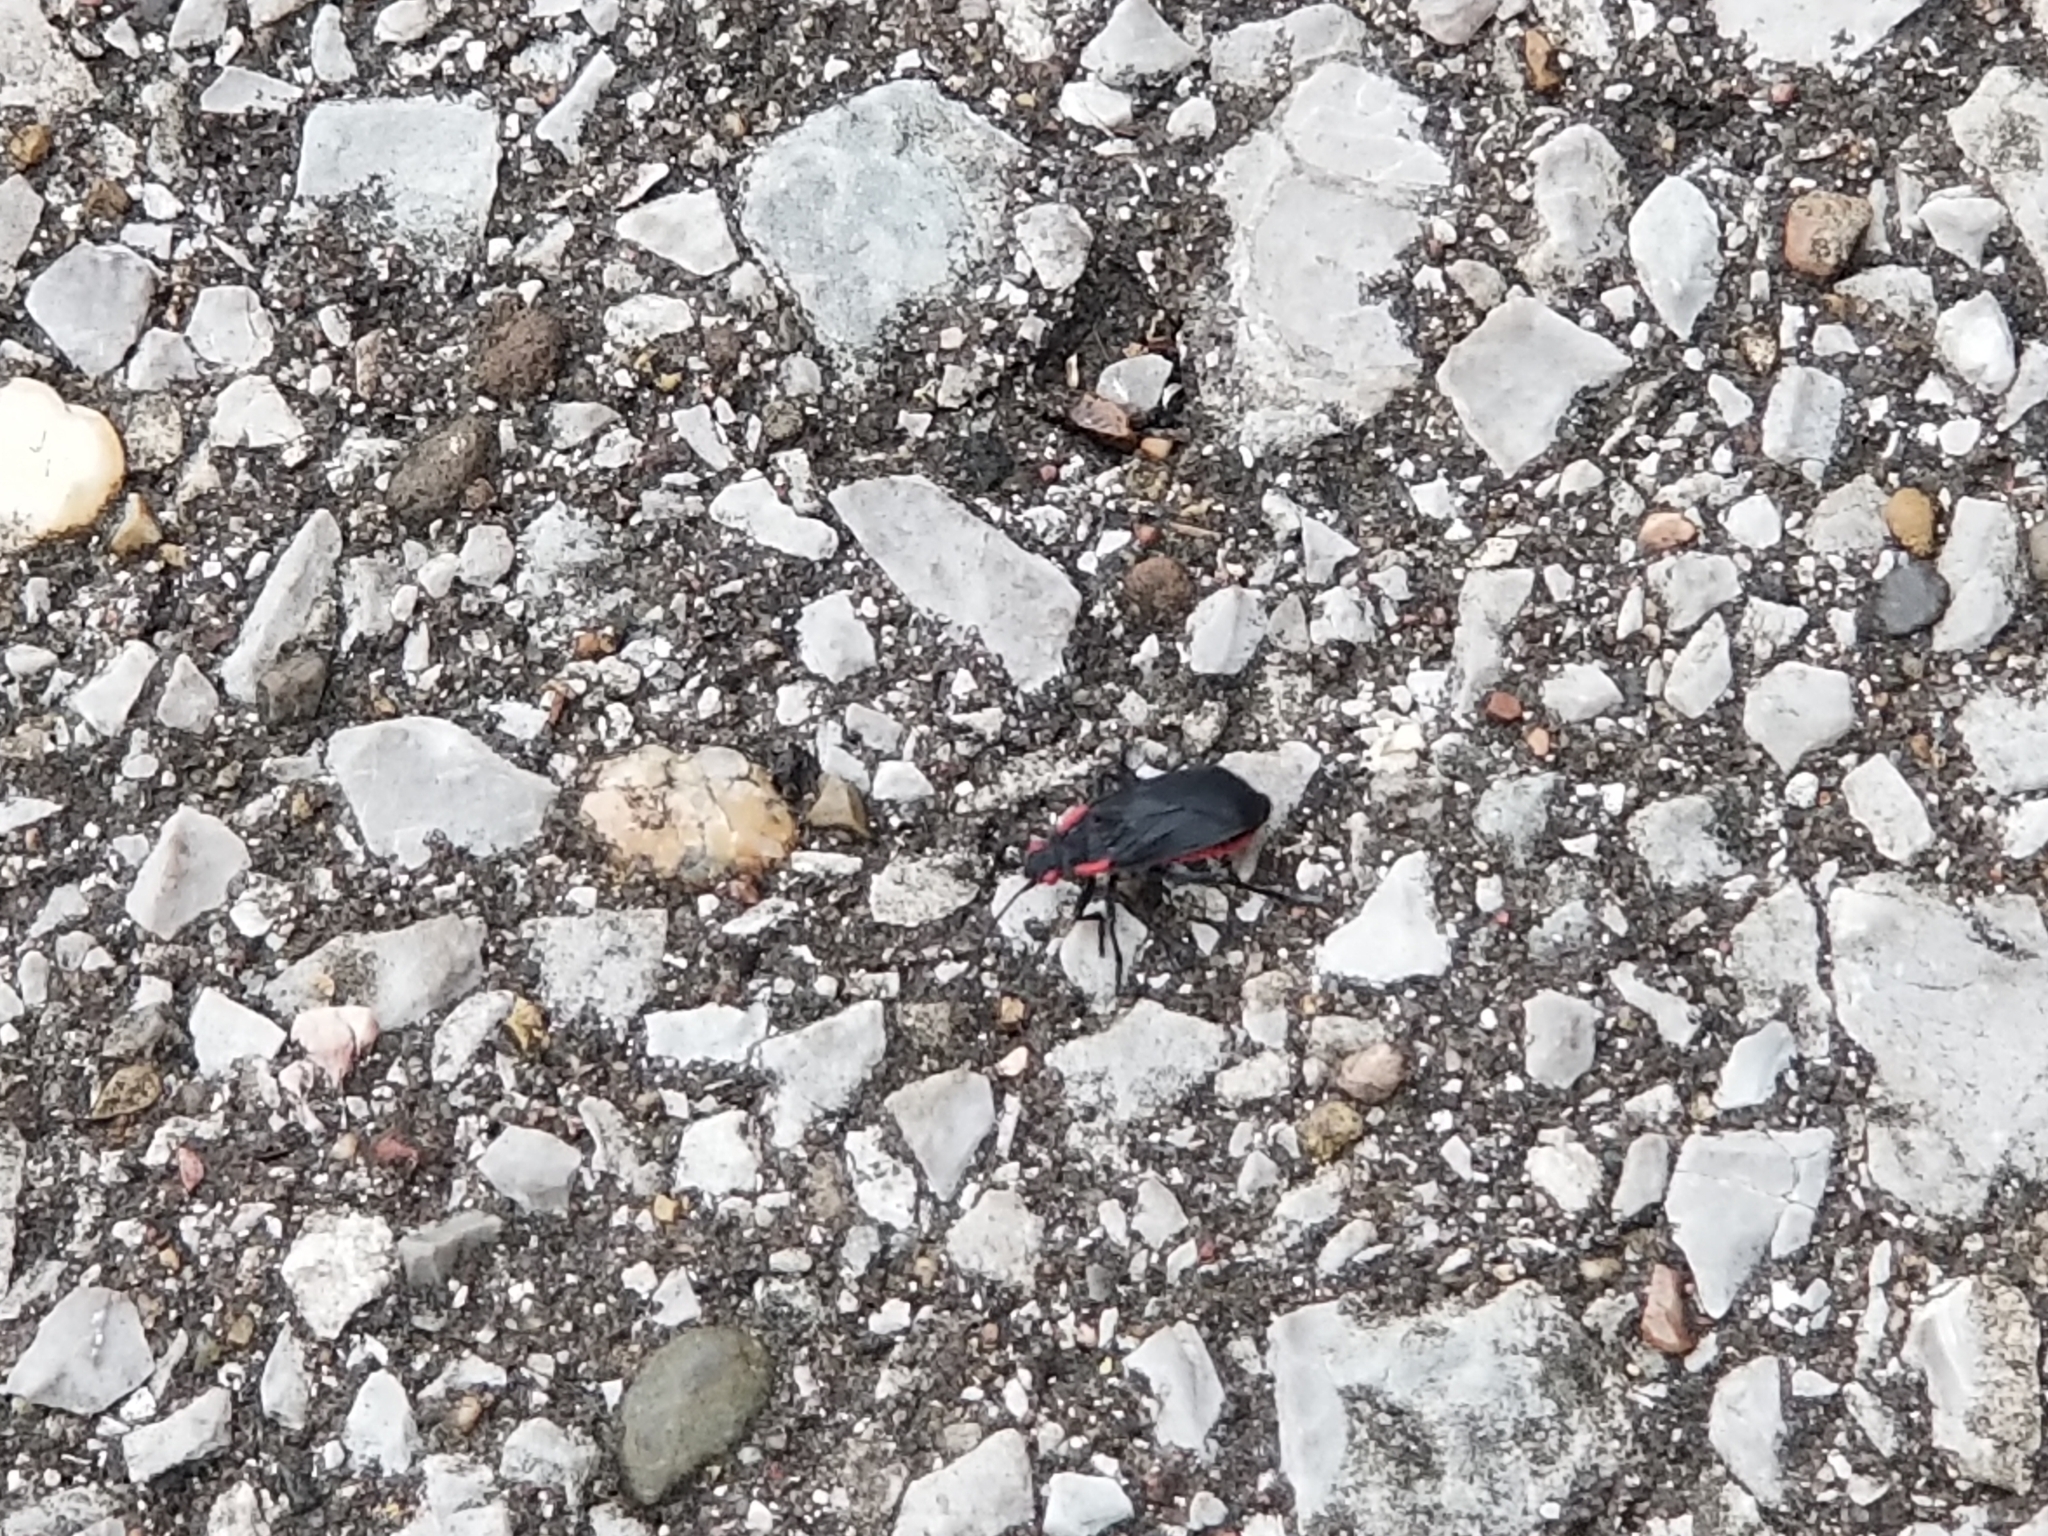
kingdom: Animalia
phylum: Arthropoda
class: Insecta
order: Hemiptera
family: Rhopalidae
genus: Jadera
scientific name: Jadera haematoloma
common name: Red-shouldered bug
